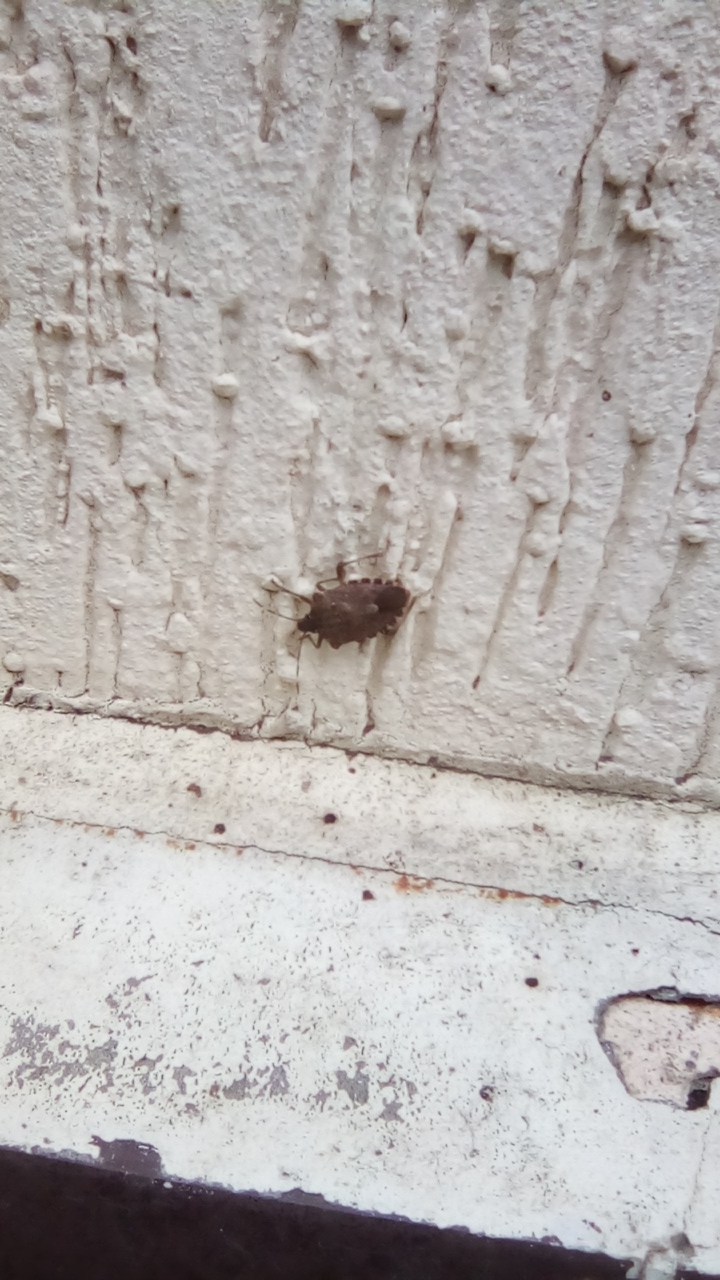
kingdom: Animalia
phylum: Arthropoda
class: Insecta
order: Hemiptera
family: Pentatomidae
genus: Halyomorpha
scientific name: Halyomorpha halys
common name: Brown marmorated stink bug
